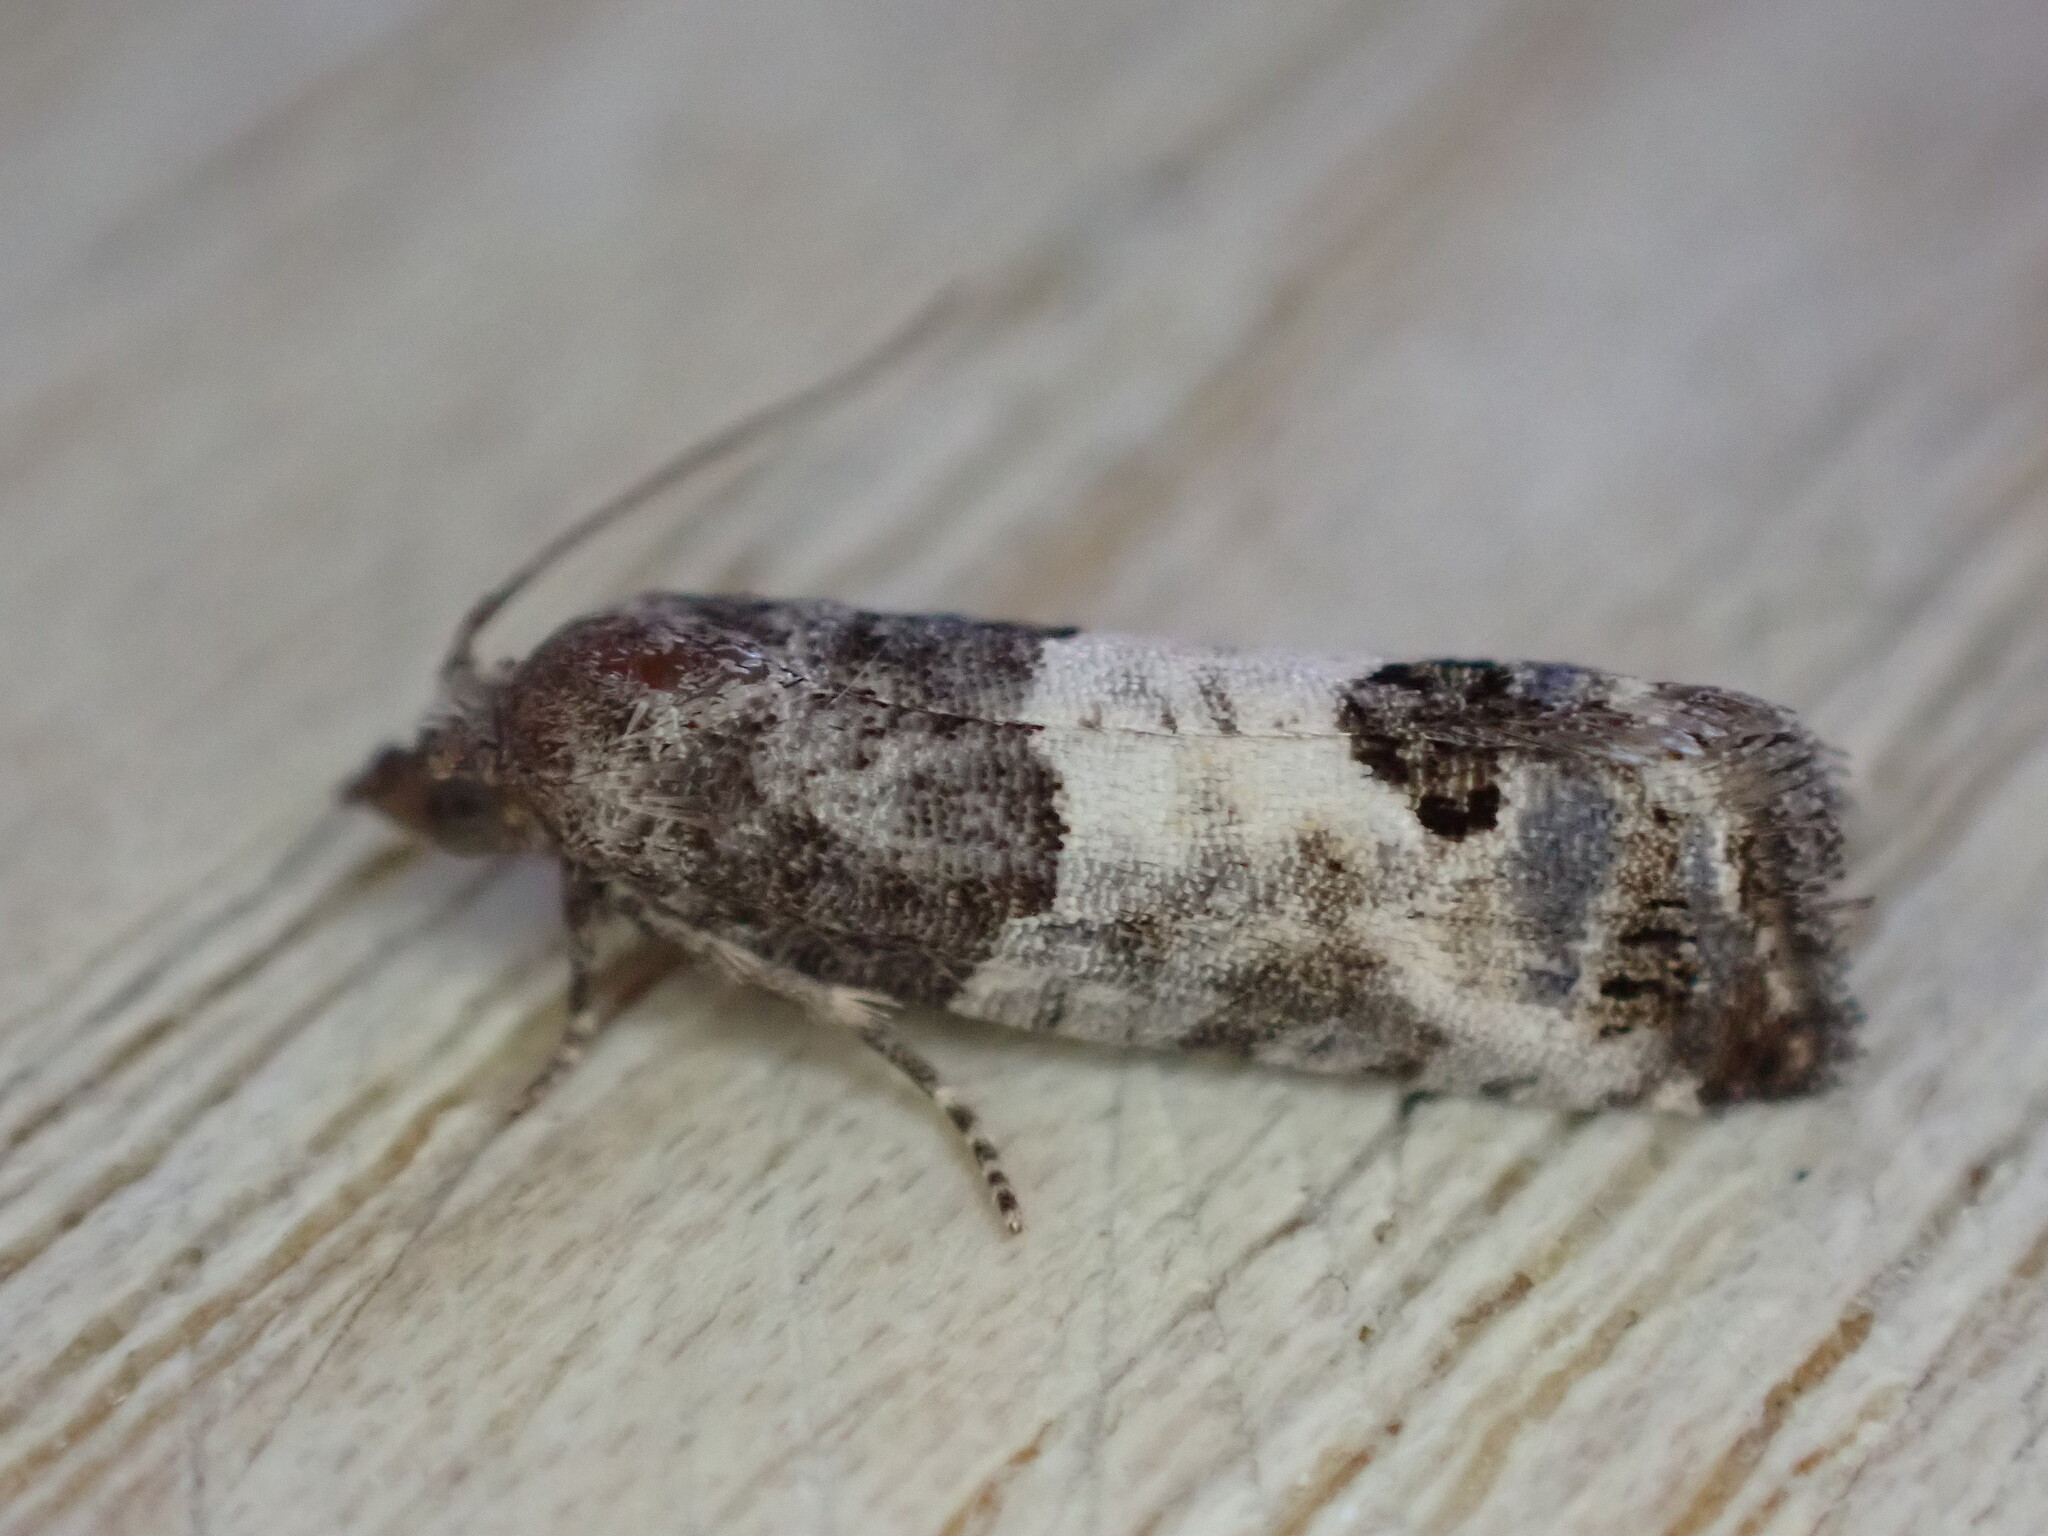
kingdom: Animalia
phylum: Arthropoda
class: Insecta
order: Lepidoptera
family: Tortricidae
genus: Spilonota
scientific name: Spilonota ocellana
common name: Bud moth
